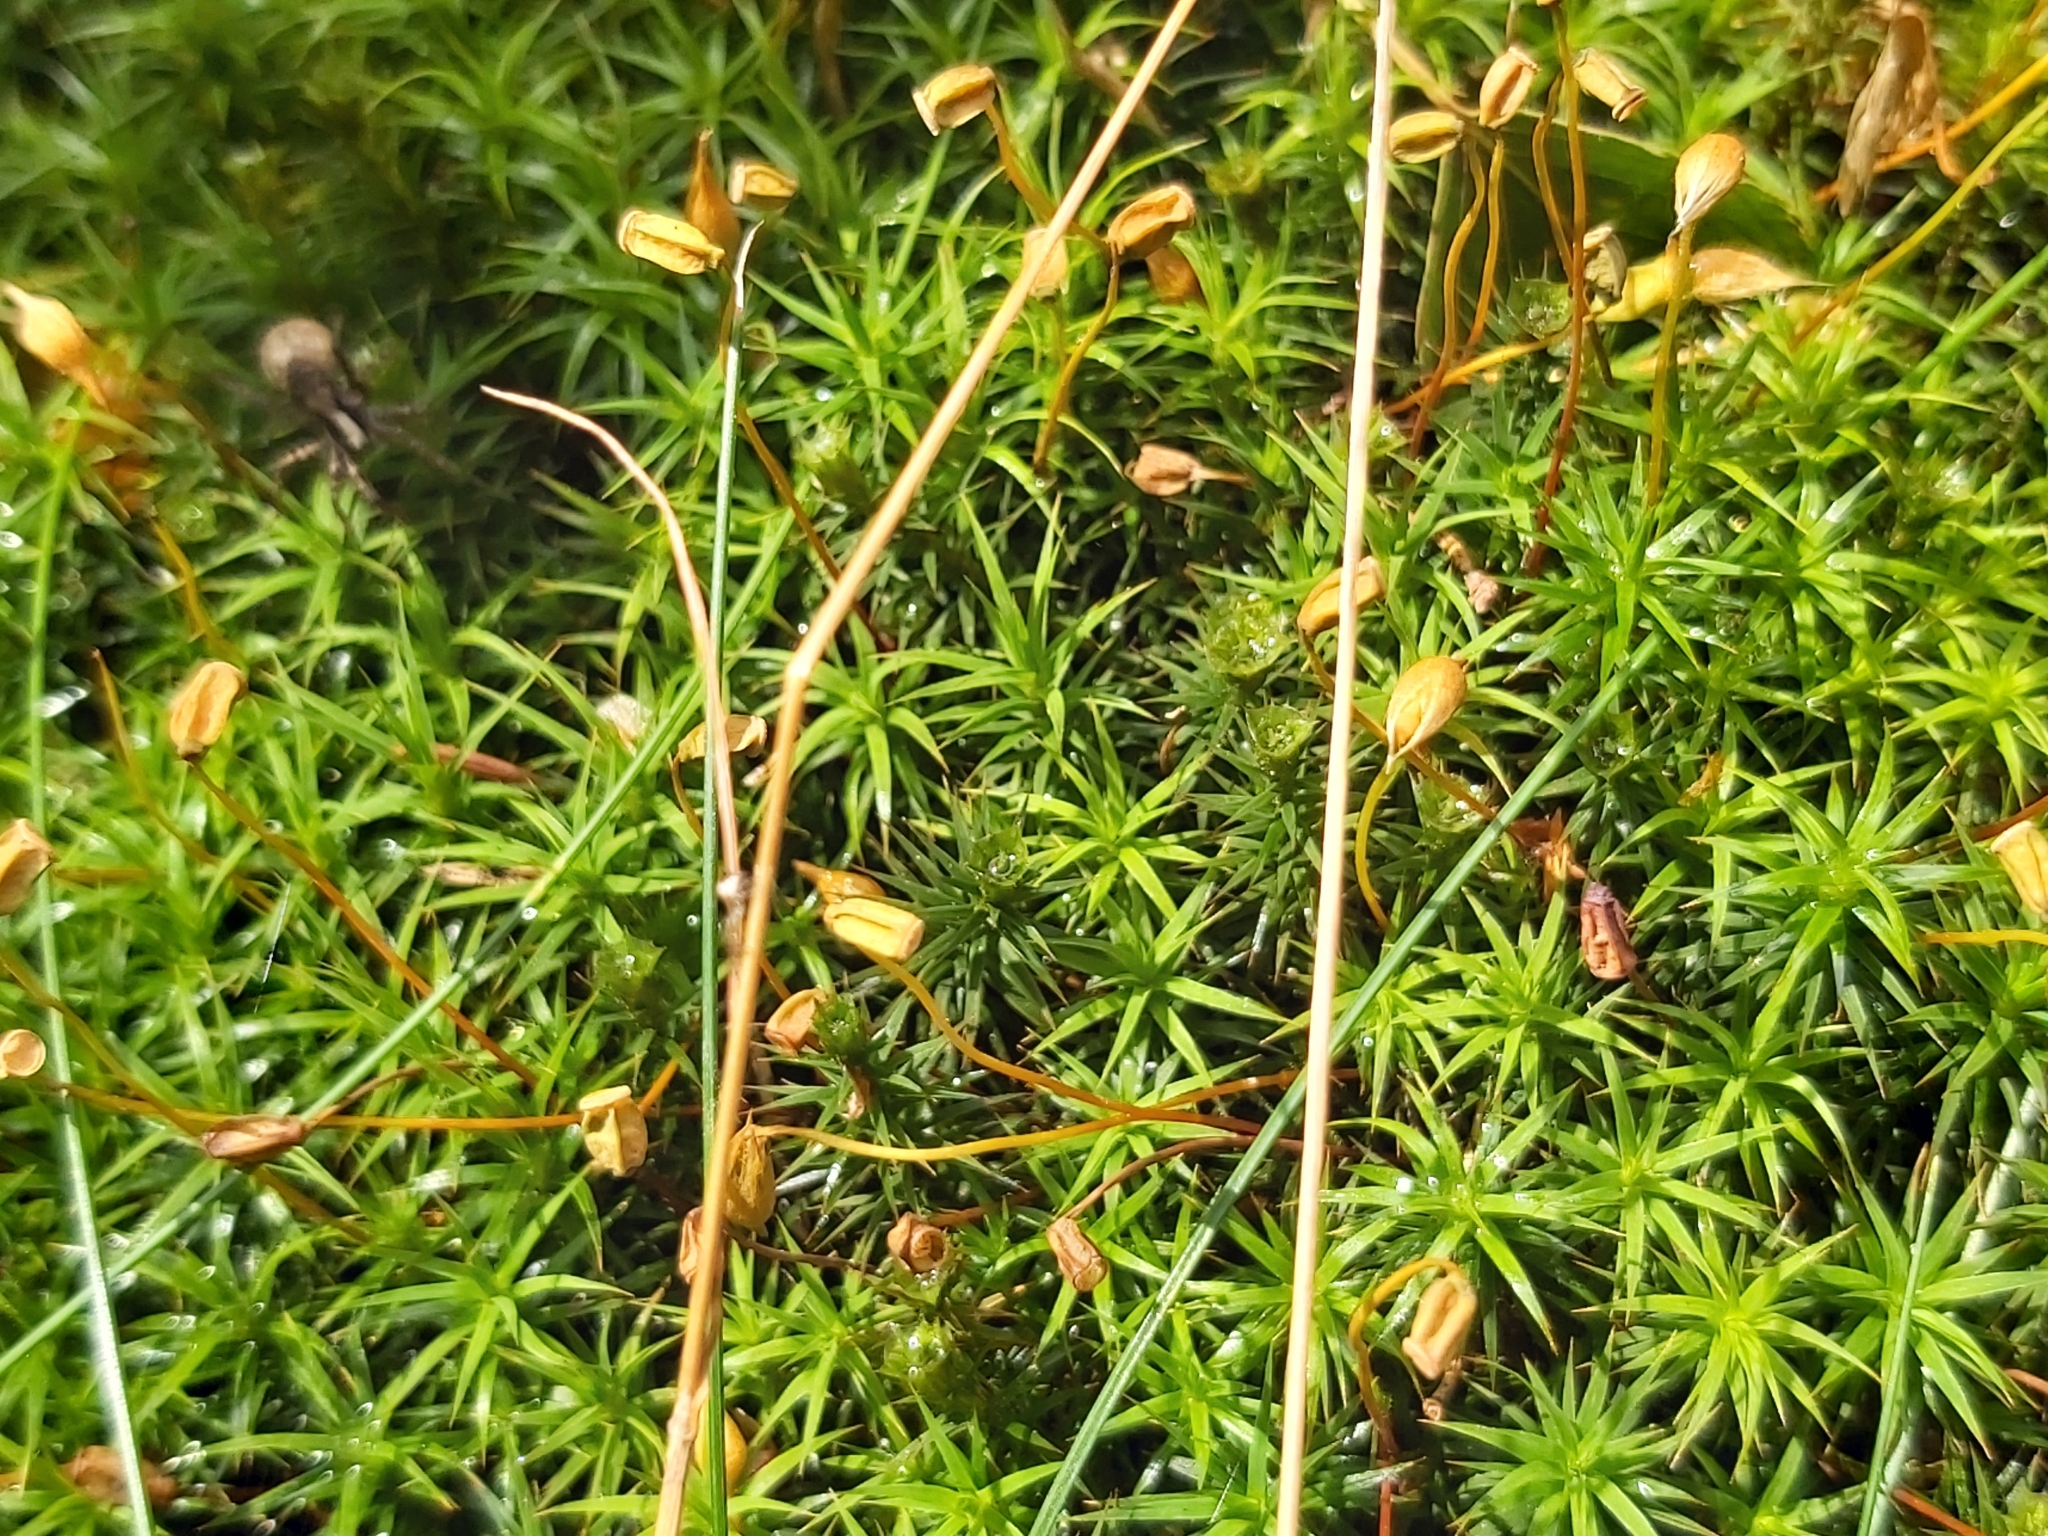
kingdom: Plantae
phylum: Bryophyta
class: Polytrichopsida
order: Polytrichales
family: Polytrichaceae
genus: Polytrichum
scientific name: Polytrichum formosum
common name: Bank haircap moss
